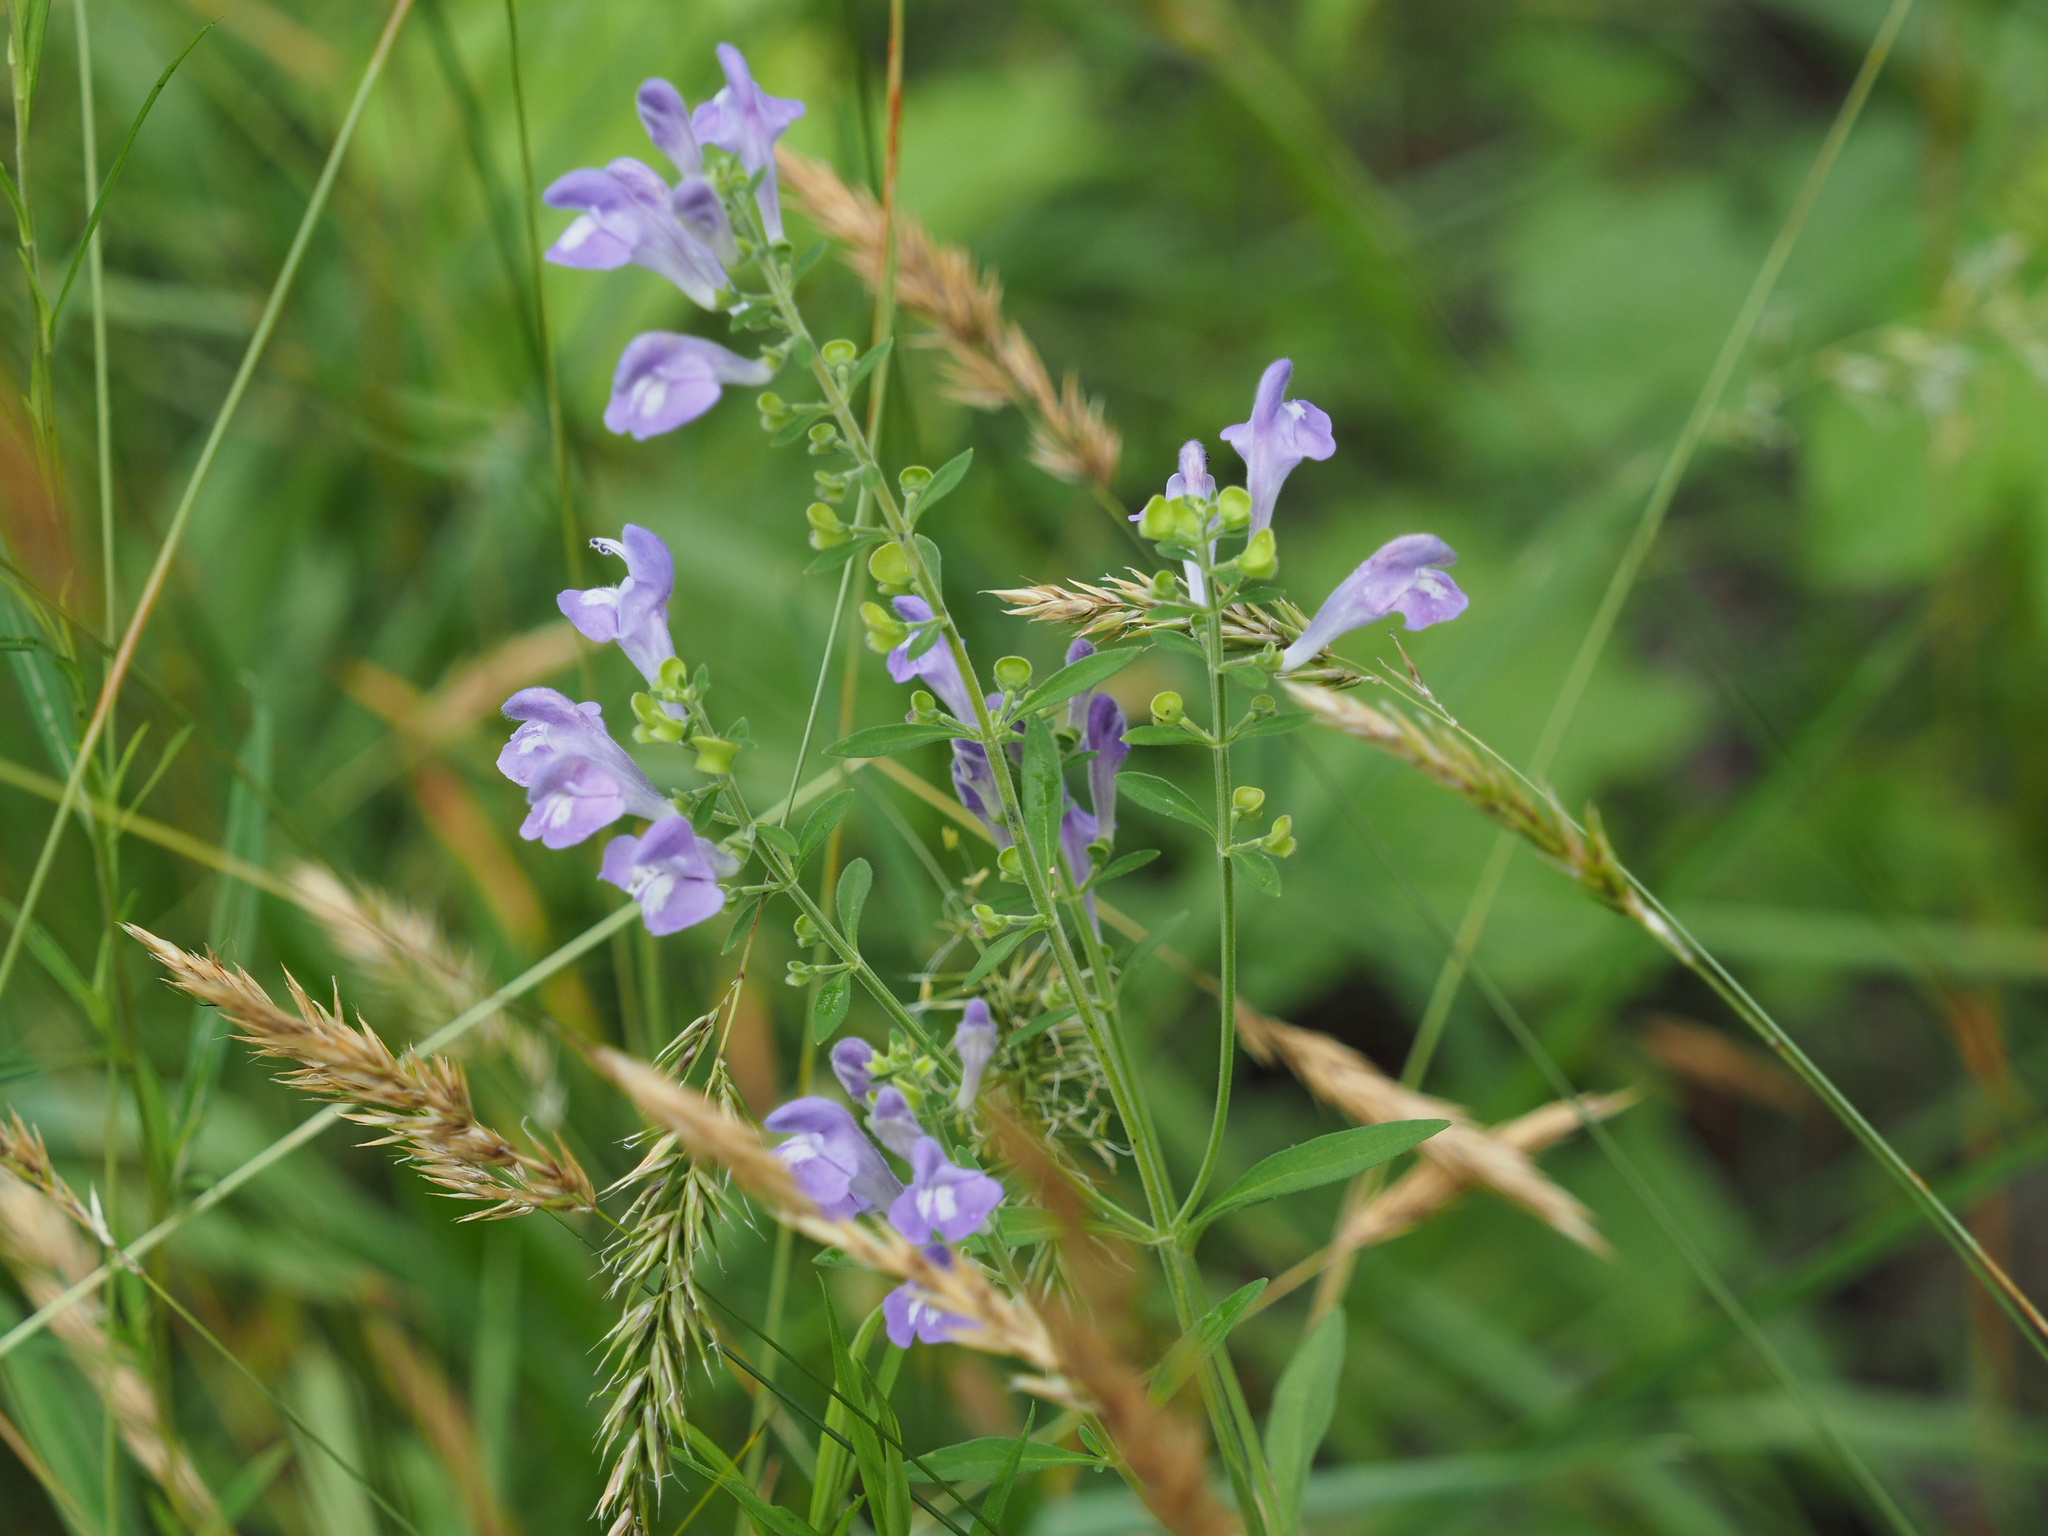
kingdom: Plantae
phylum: Tracheophyta
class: Magnoliopsida
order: Lamiales
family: Lamiaceae
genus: Scutellaria
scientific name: Scutellaria integrifolia
